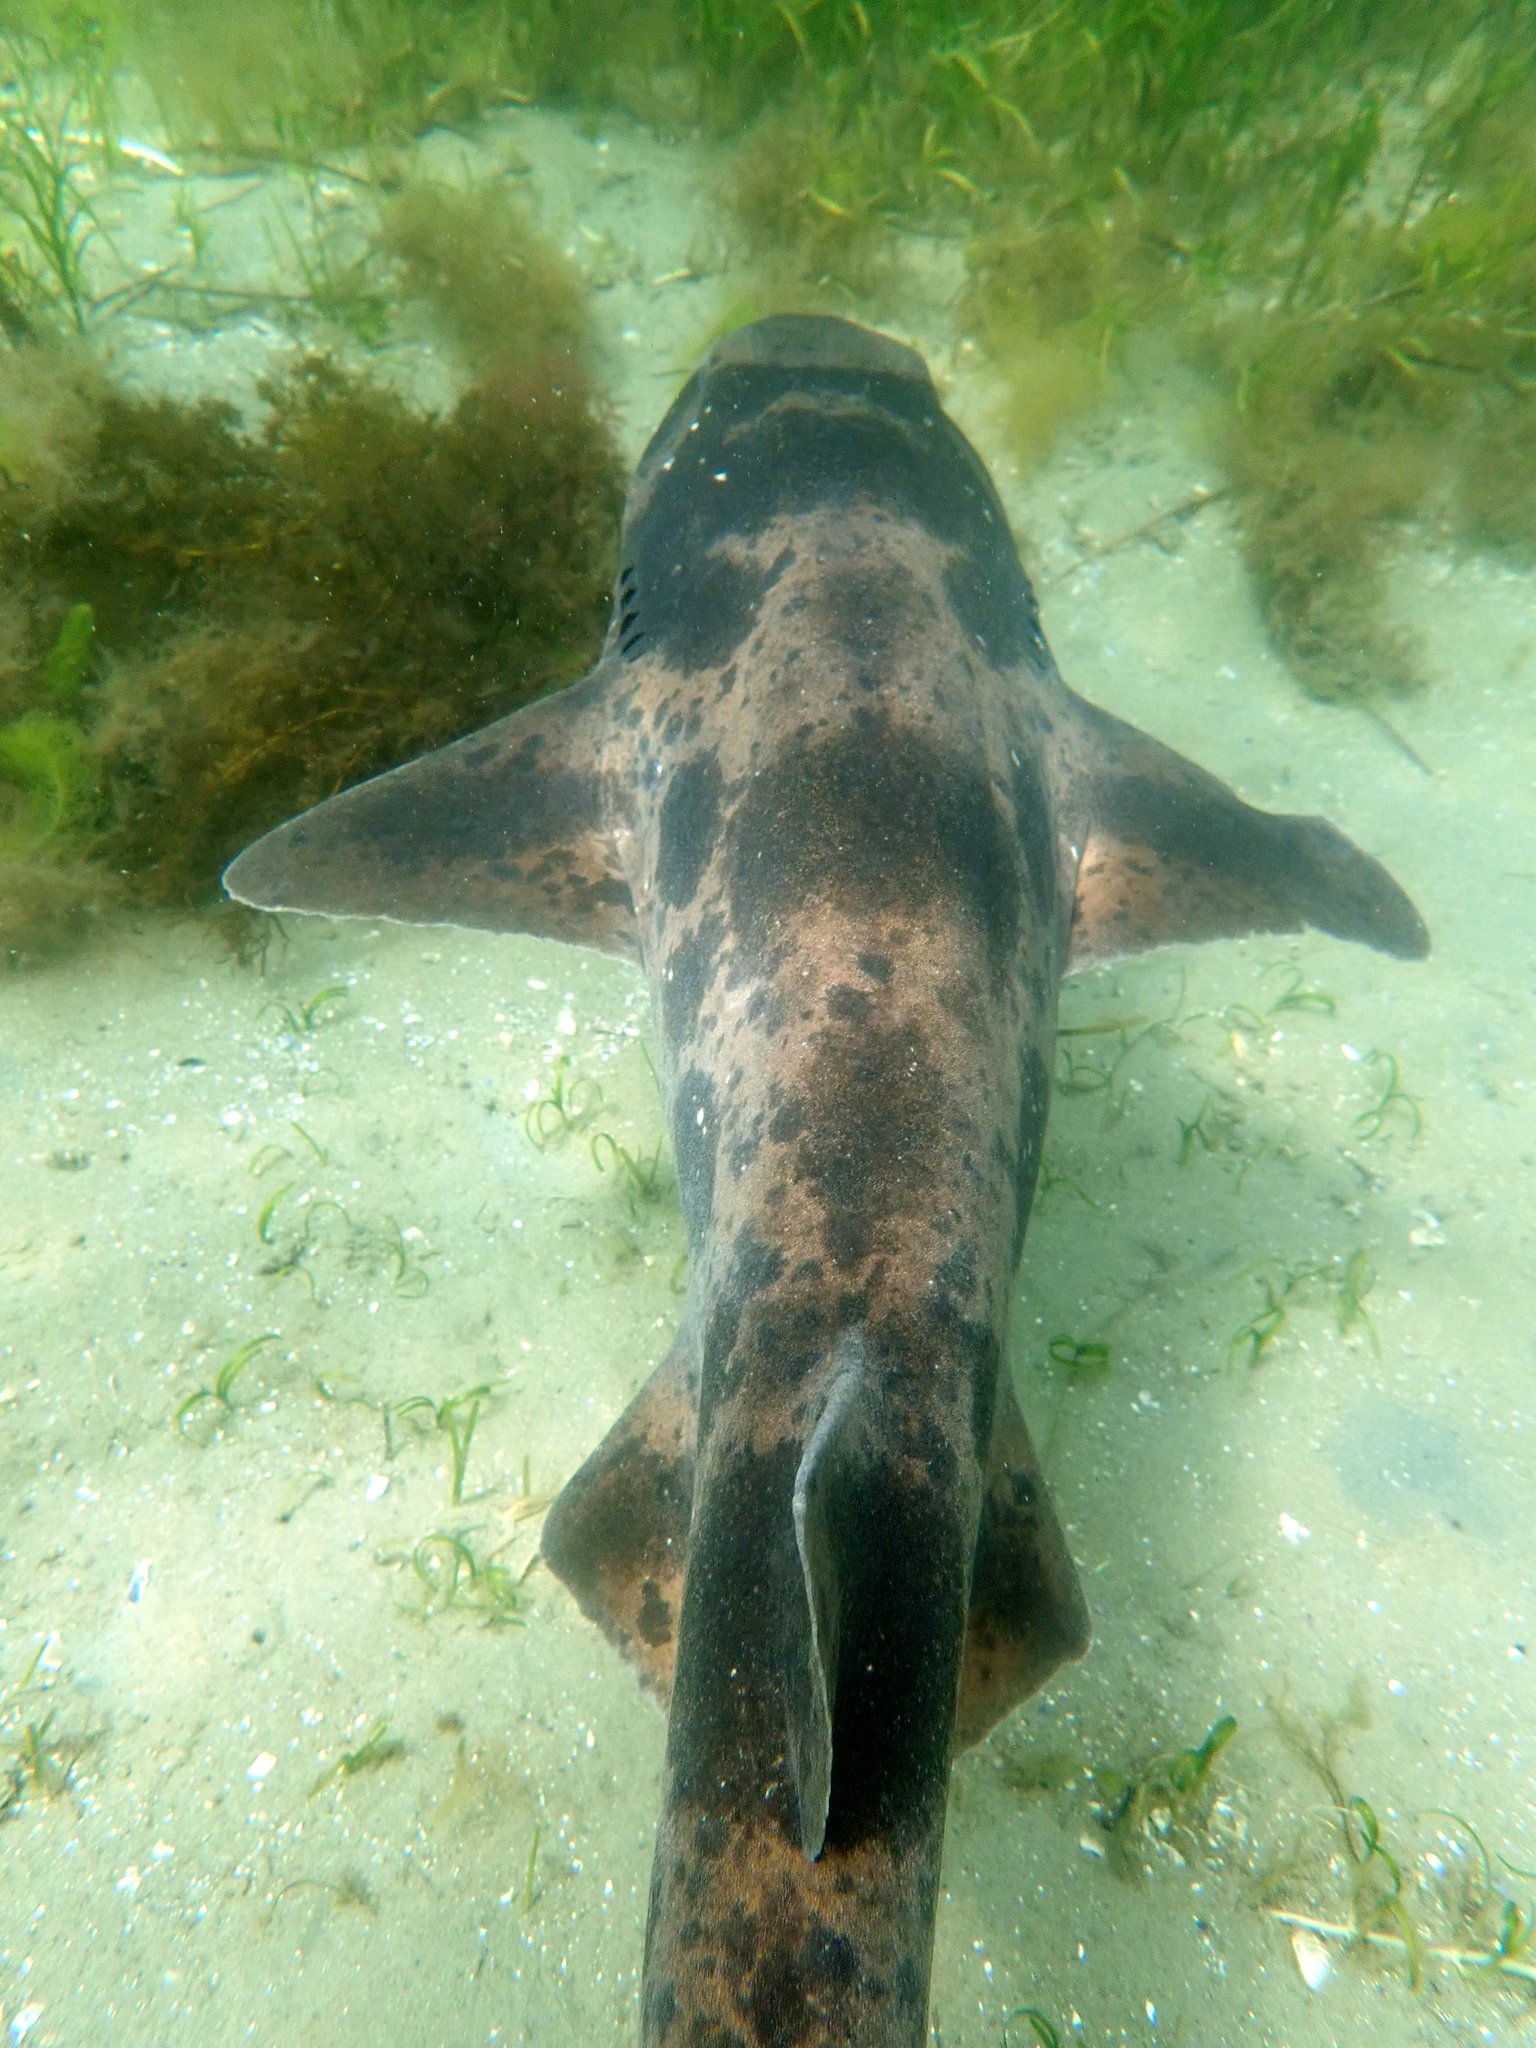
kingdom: Animalia
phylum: Chordata
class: Elasmobranchii
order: Carcharhiniformes
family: Scyliorhinidae
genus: Cephaloscyllium
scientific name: Cephaloscyllium laticeps
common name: Australian swellshark
